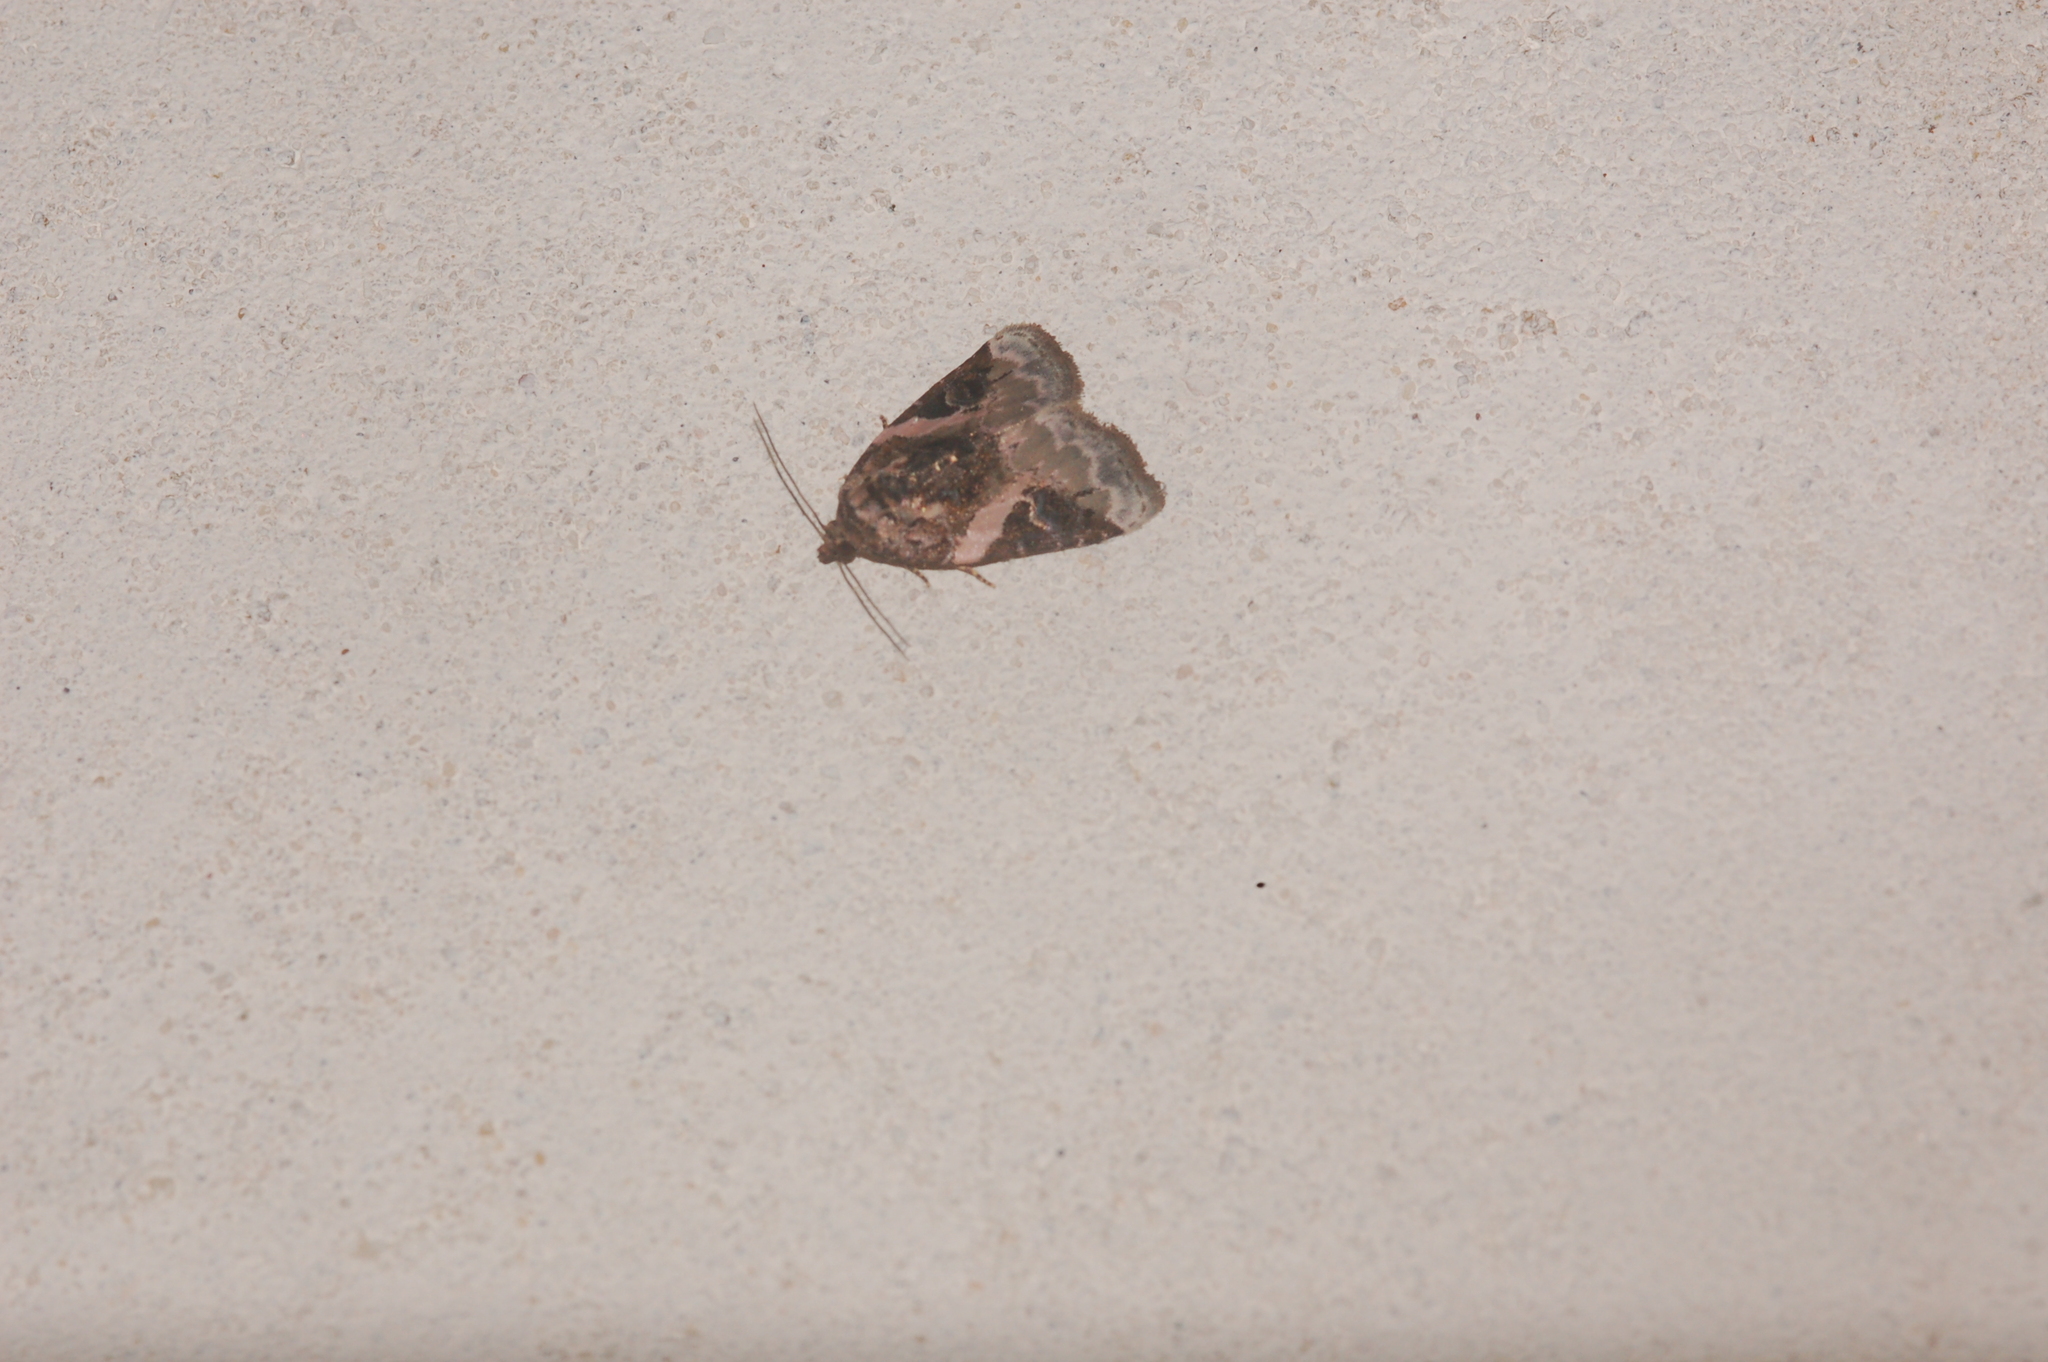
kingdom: Animalia
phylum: Arthropoda
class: Insecta
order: Lepidoptera
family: Noctuidae
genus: Pseudeustrotia
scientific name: Pseudeustrotia carneola
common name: Pink-barred lithacodia moth
